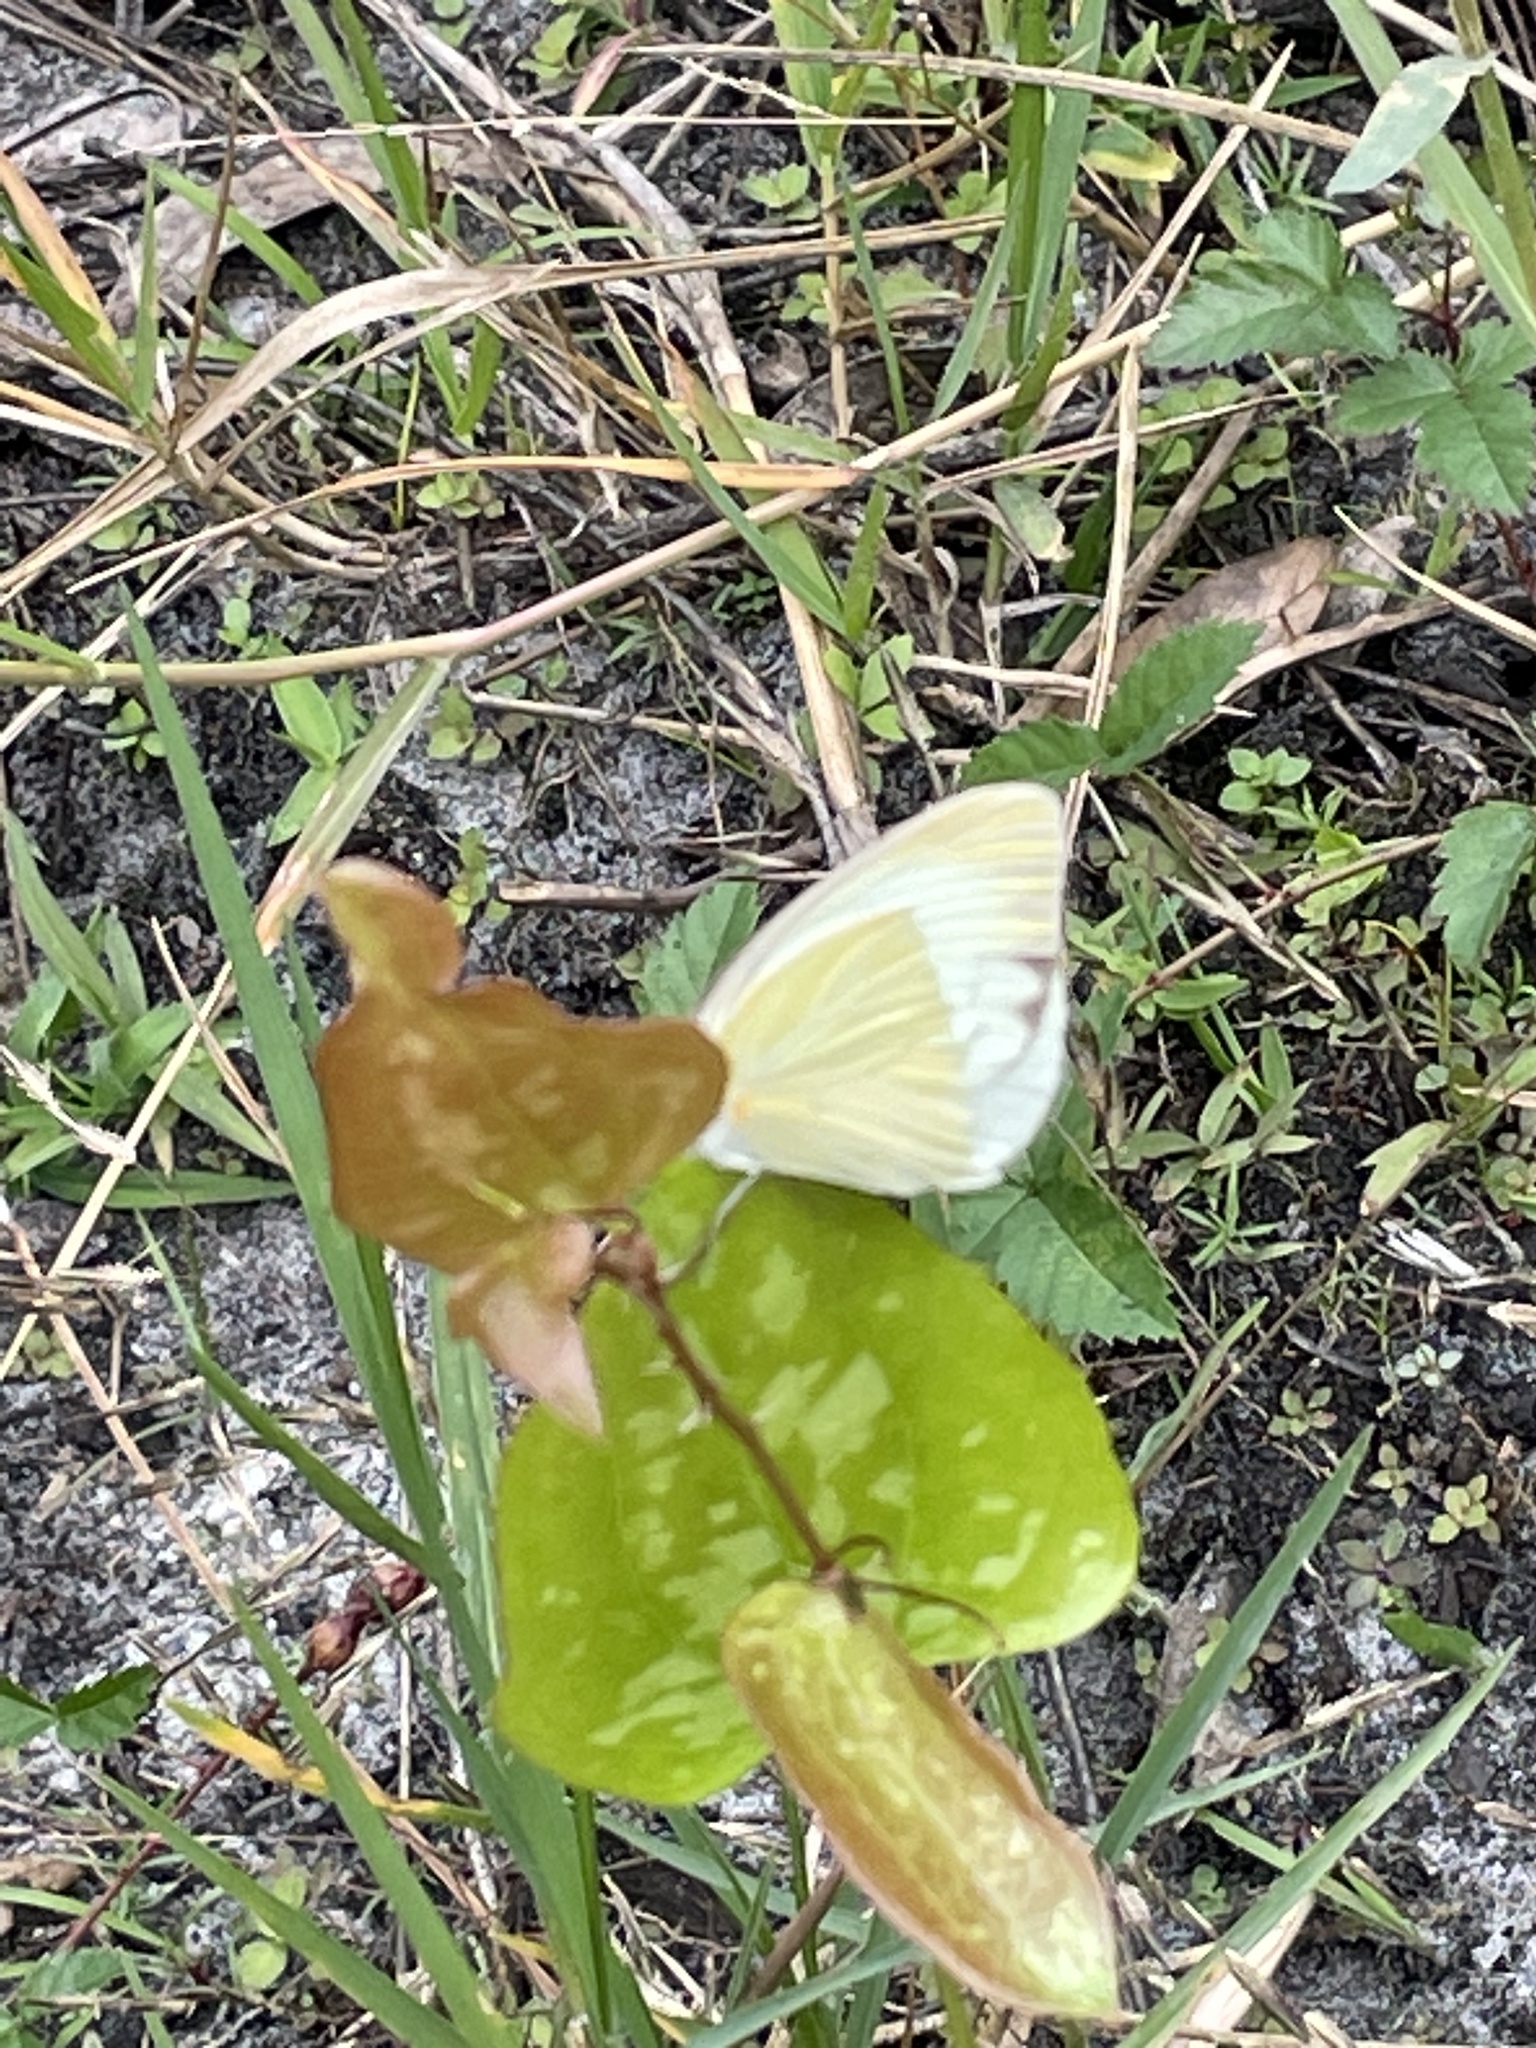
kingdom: Animalia
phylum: Arthropoda
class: Insecta
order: Lepidoptera
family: Pieridae
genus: Ascia
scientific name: Ascia monuste
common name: Great southern white
